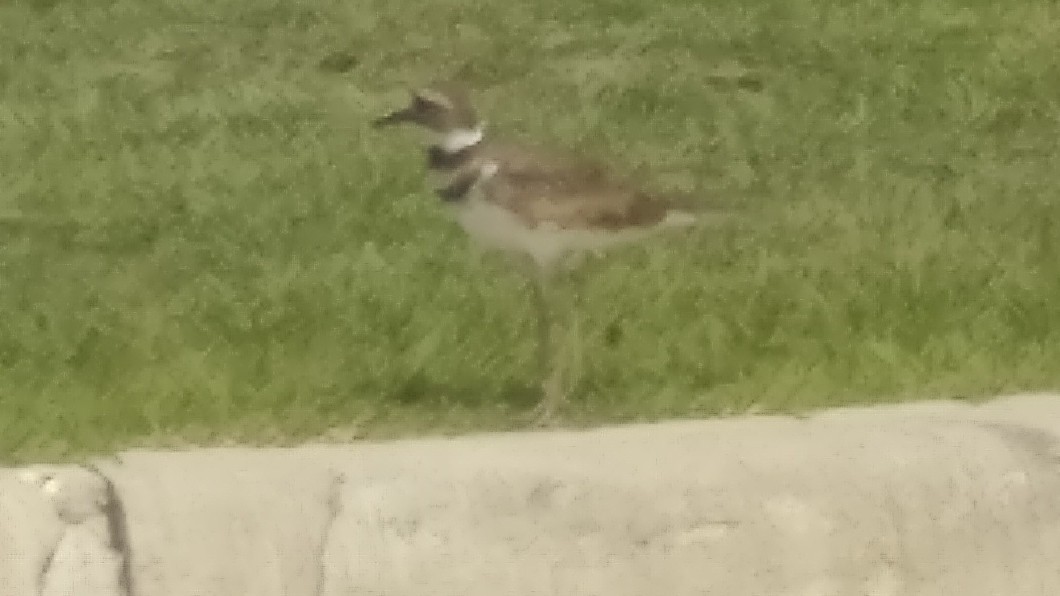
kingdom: Animalia
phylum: Chordata
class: Aves
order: Charadriiformes
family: Charadriidae
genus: Charadrius
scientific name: Charadrius vociferus
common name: Killdeer
